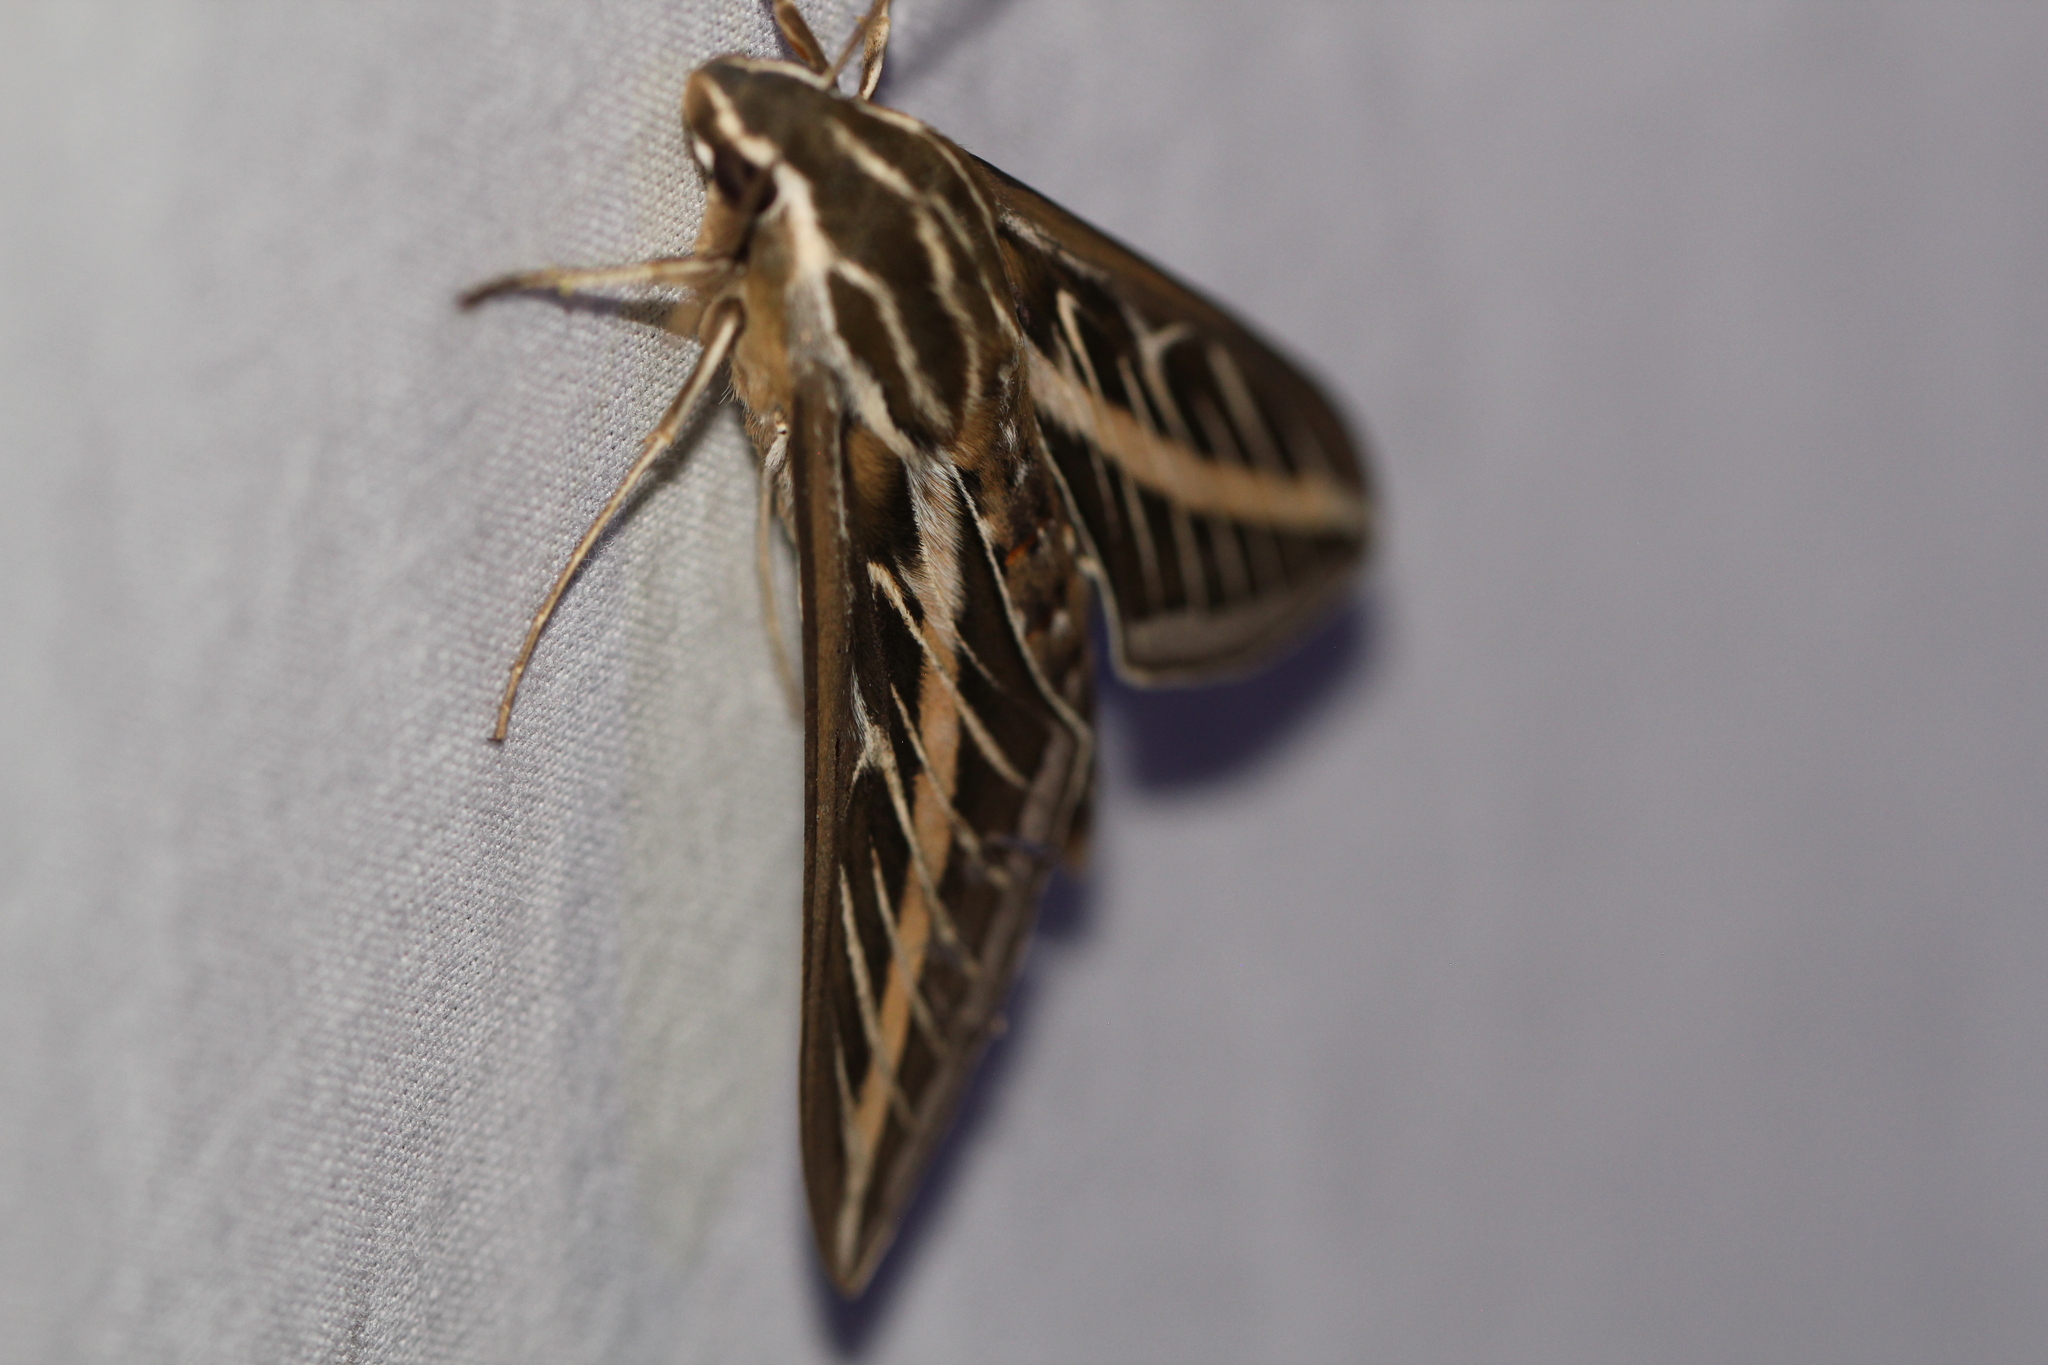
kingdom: Animalia
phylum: Arthropoda
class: Insecta
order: Lepidoptera
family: Sphingidae
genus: Hyles
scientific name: Hyles lineata
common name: White-lined sphinx
